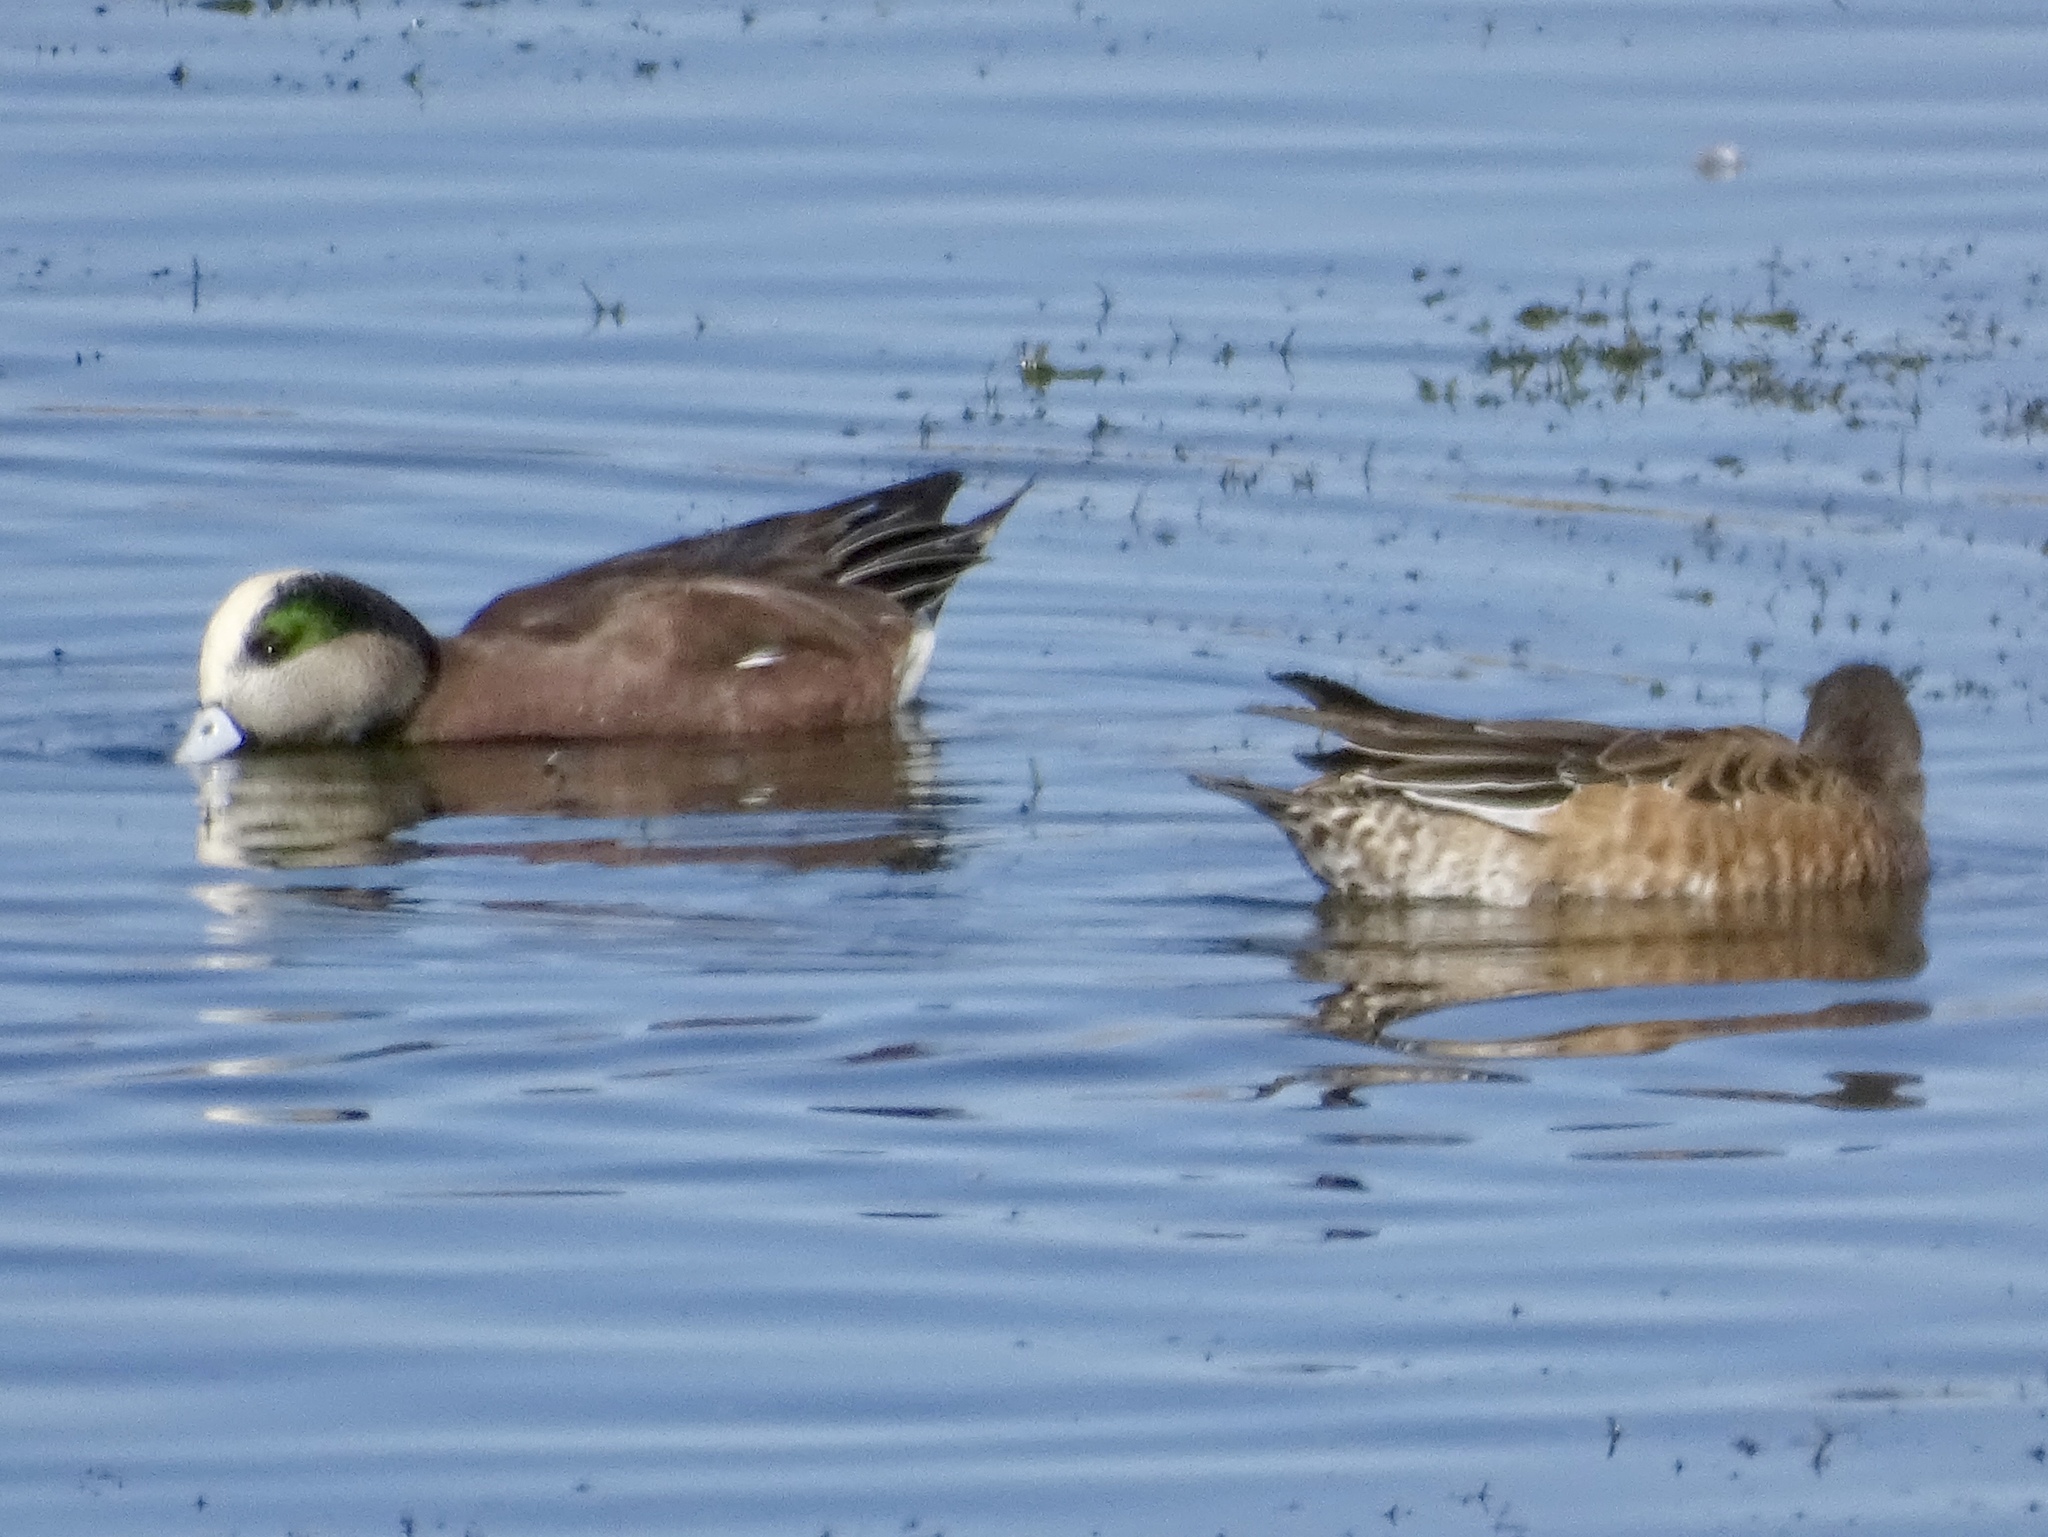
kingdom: Animalia
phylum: Chordata
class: Aves
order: Anseriformes
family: Anatidae
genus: Mareca
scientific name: Mareca americana
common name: American wigeon
